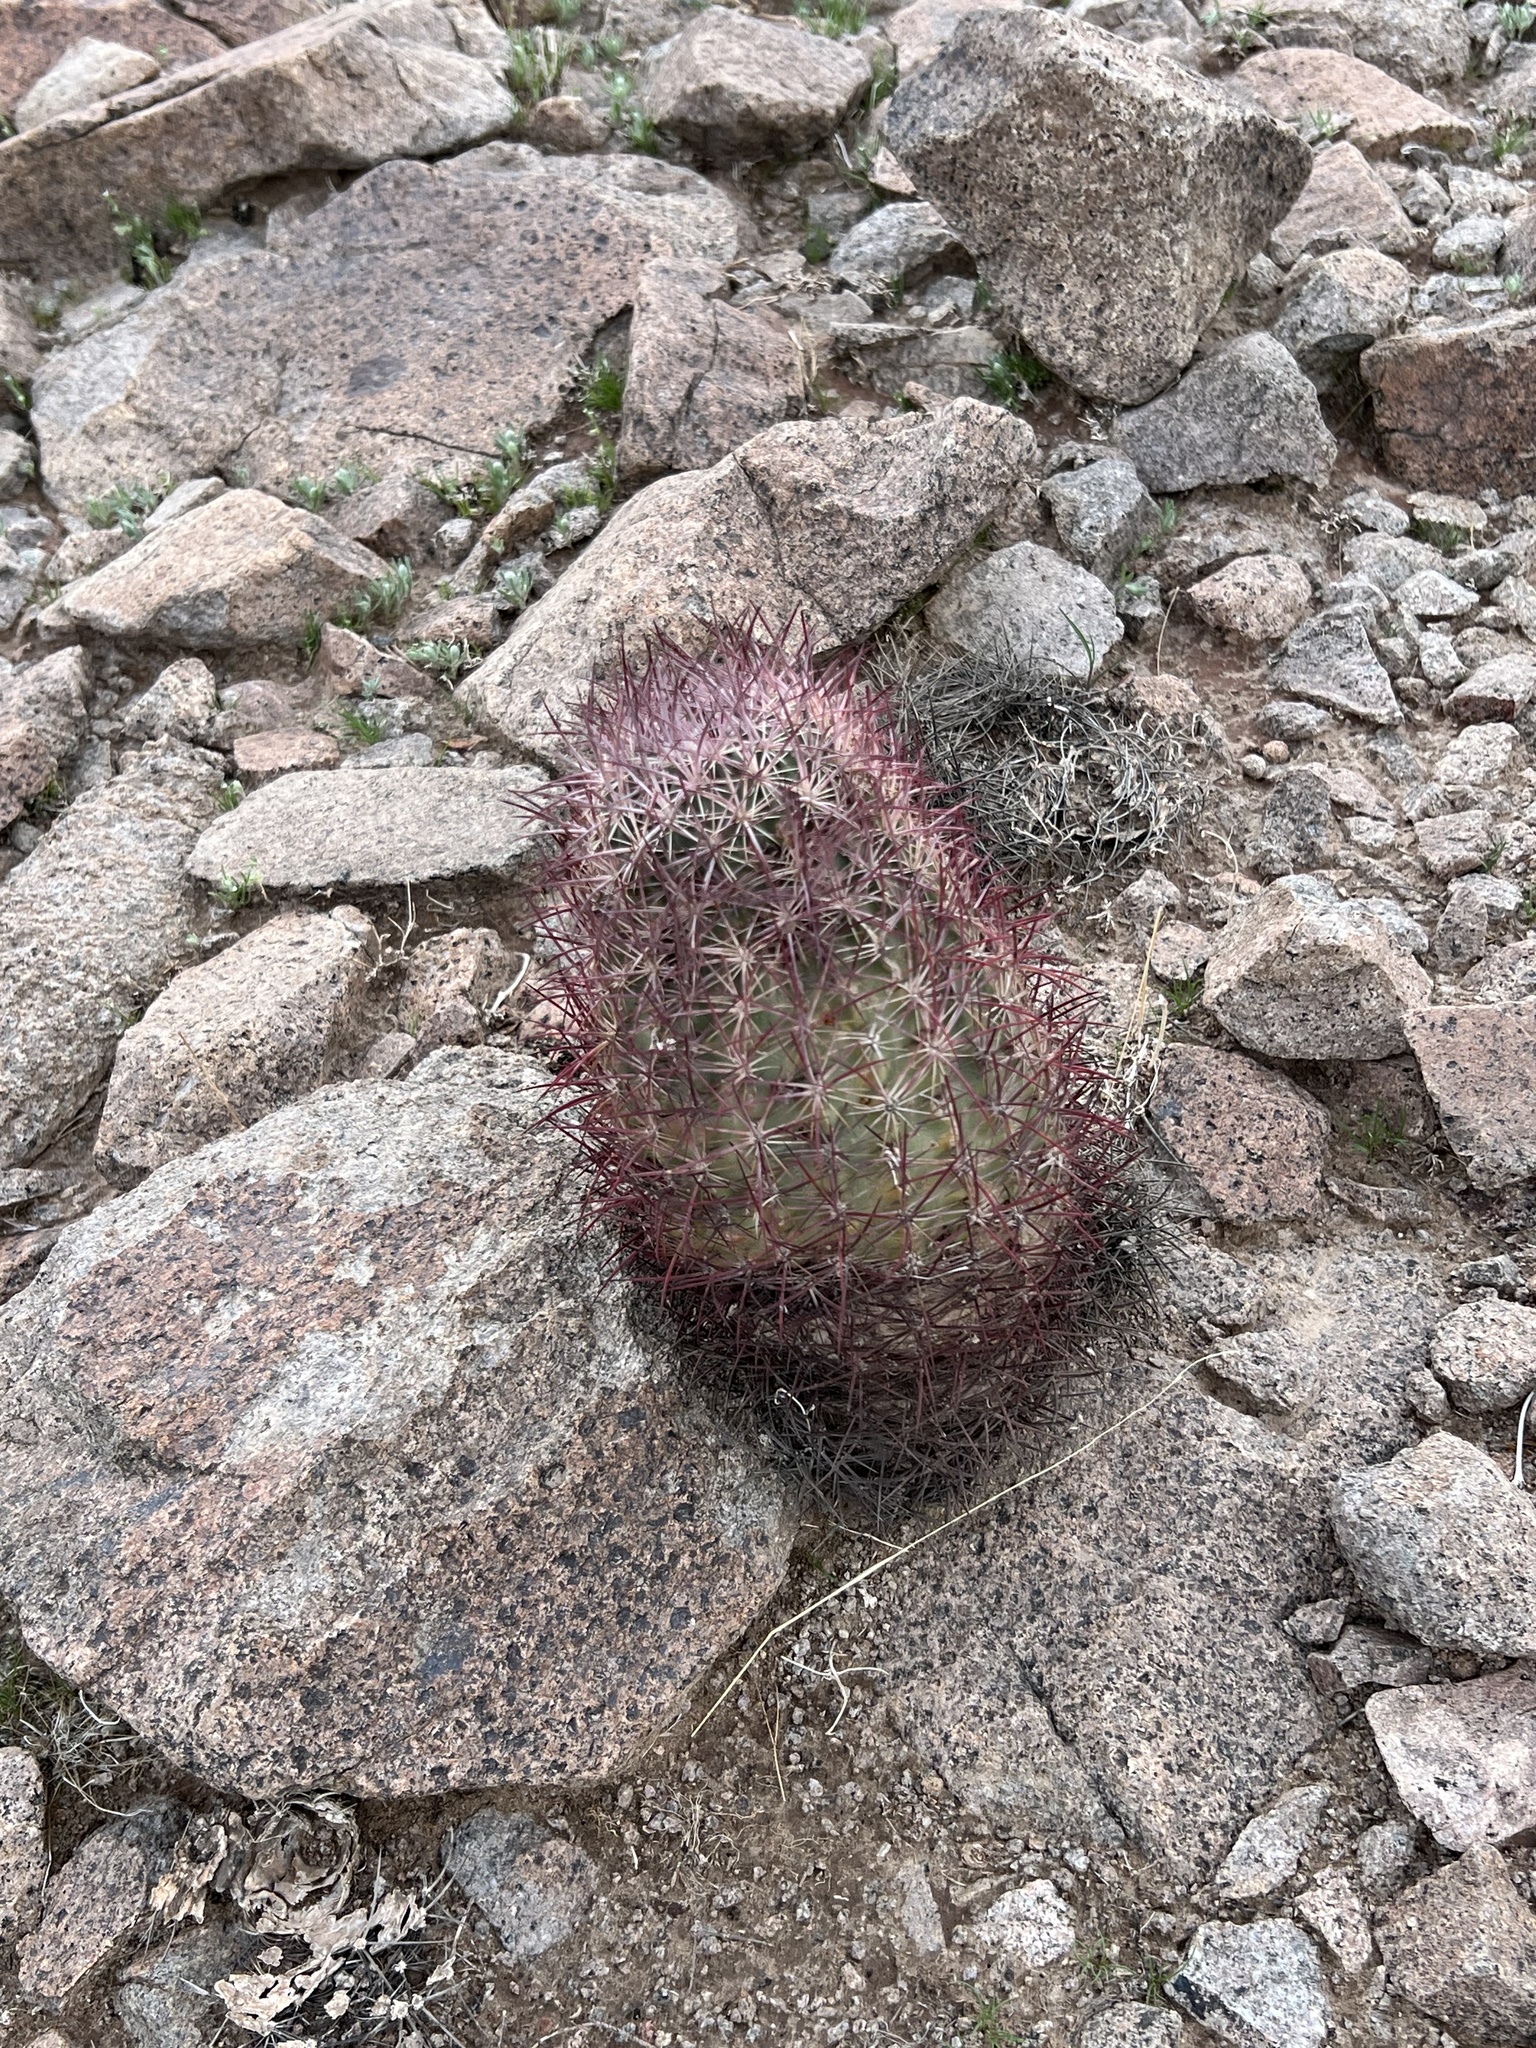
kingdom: Plantae
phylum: Tracheophyta
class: Magnoliopsida
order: Caryophyllales
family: Cactaceae
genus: Sclerocactus
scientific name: Sclerocactus johnsonii
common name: Eight-spine fishhook cactus
